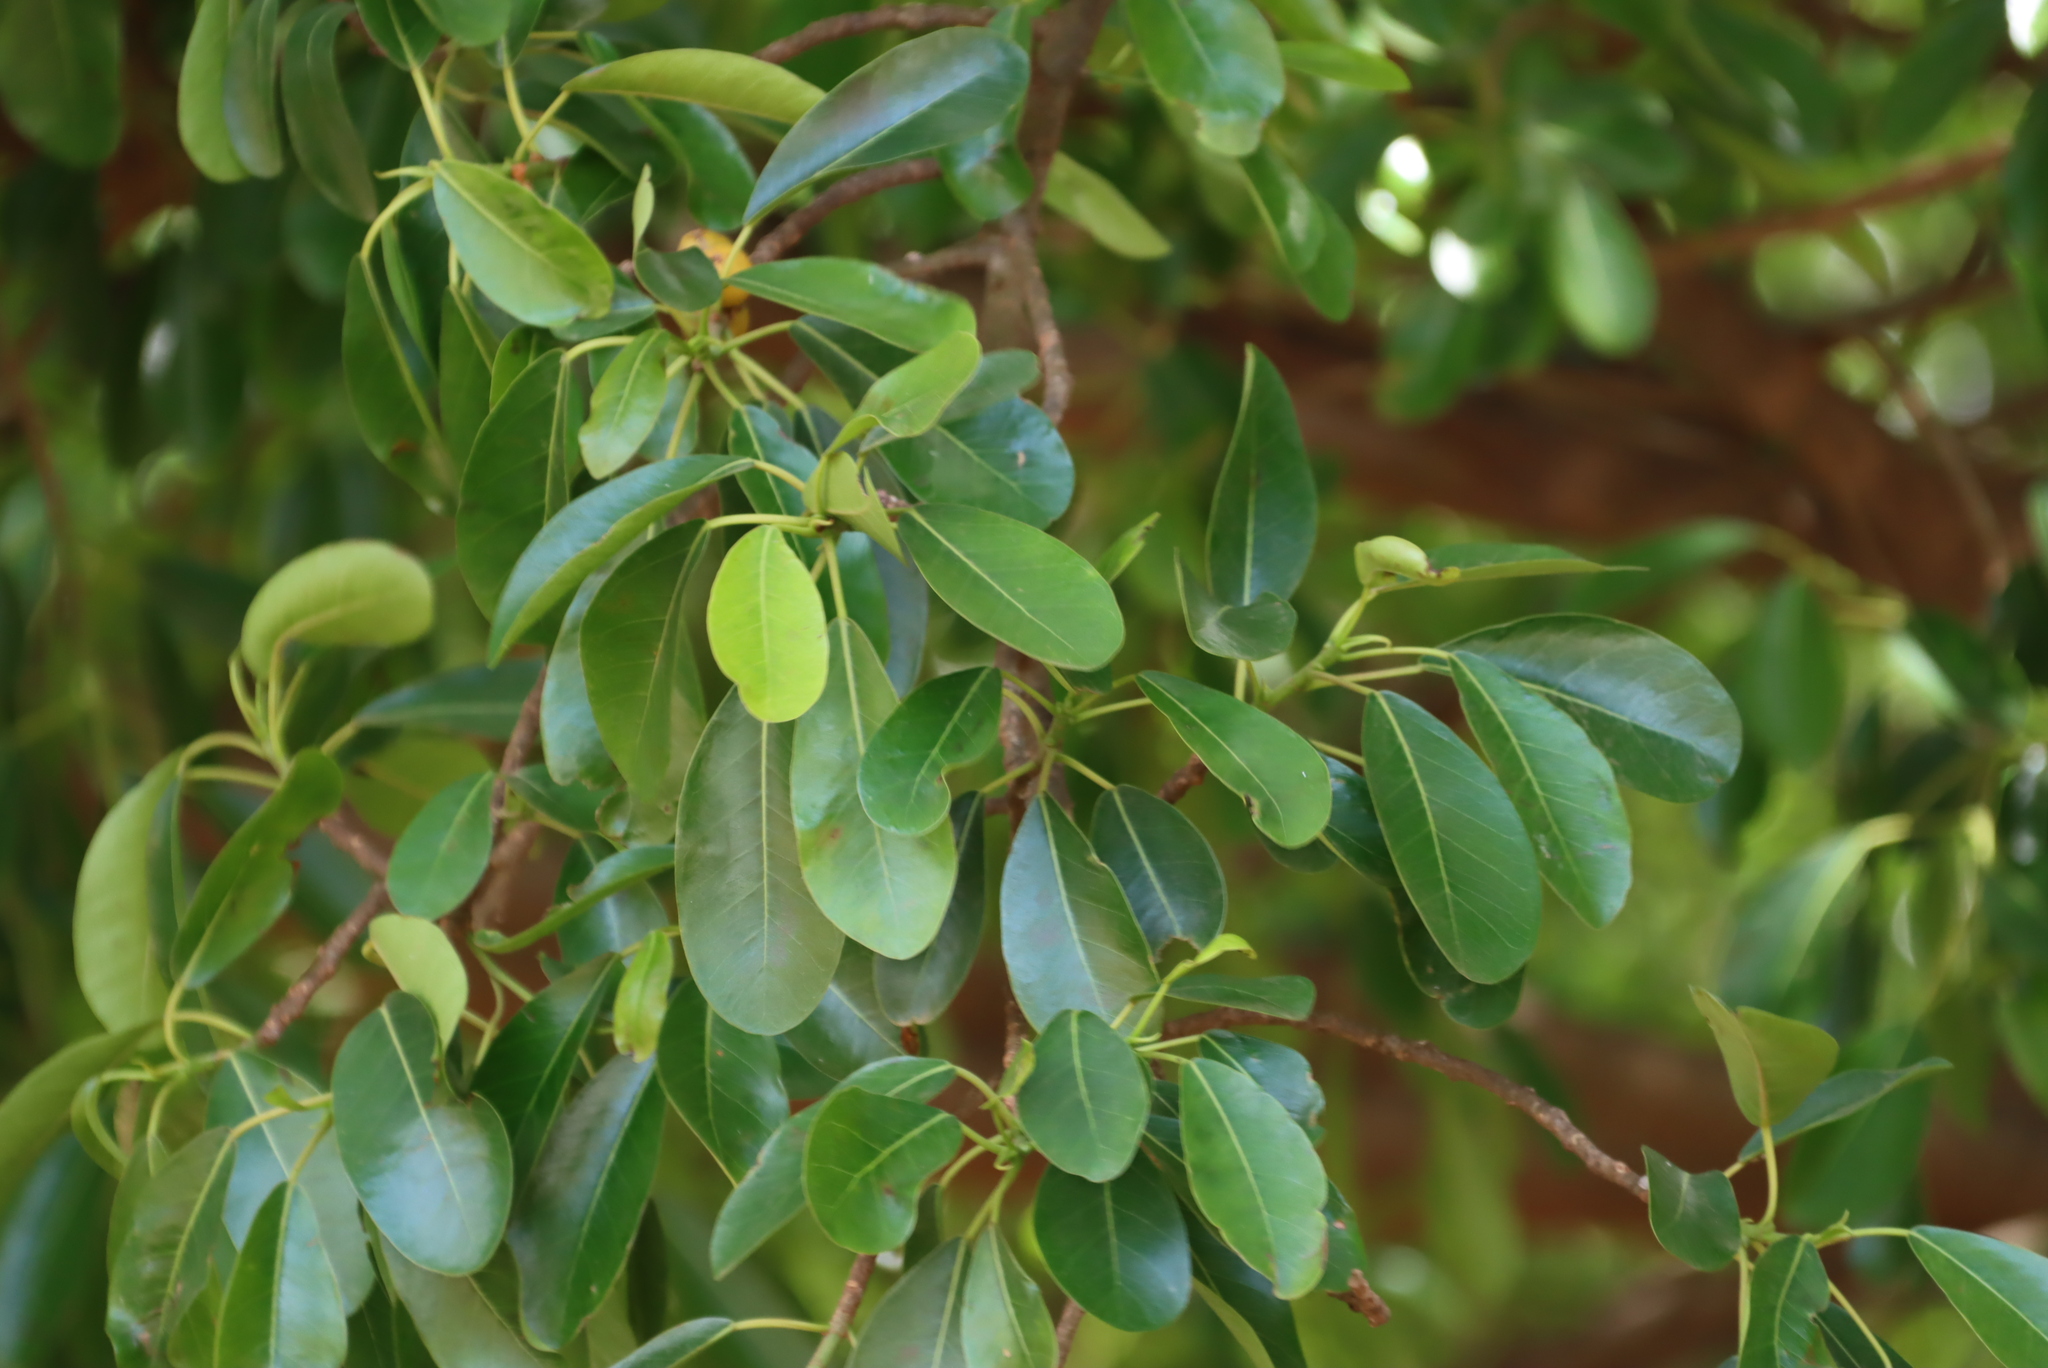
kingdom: Plantae
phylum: Tracheophyta
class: Magnoliopsida
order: Rosales
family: Moraceae
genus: Ficus
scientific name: Ficus petersii
